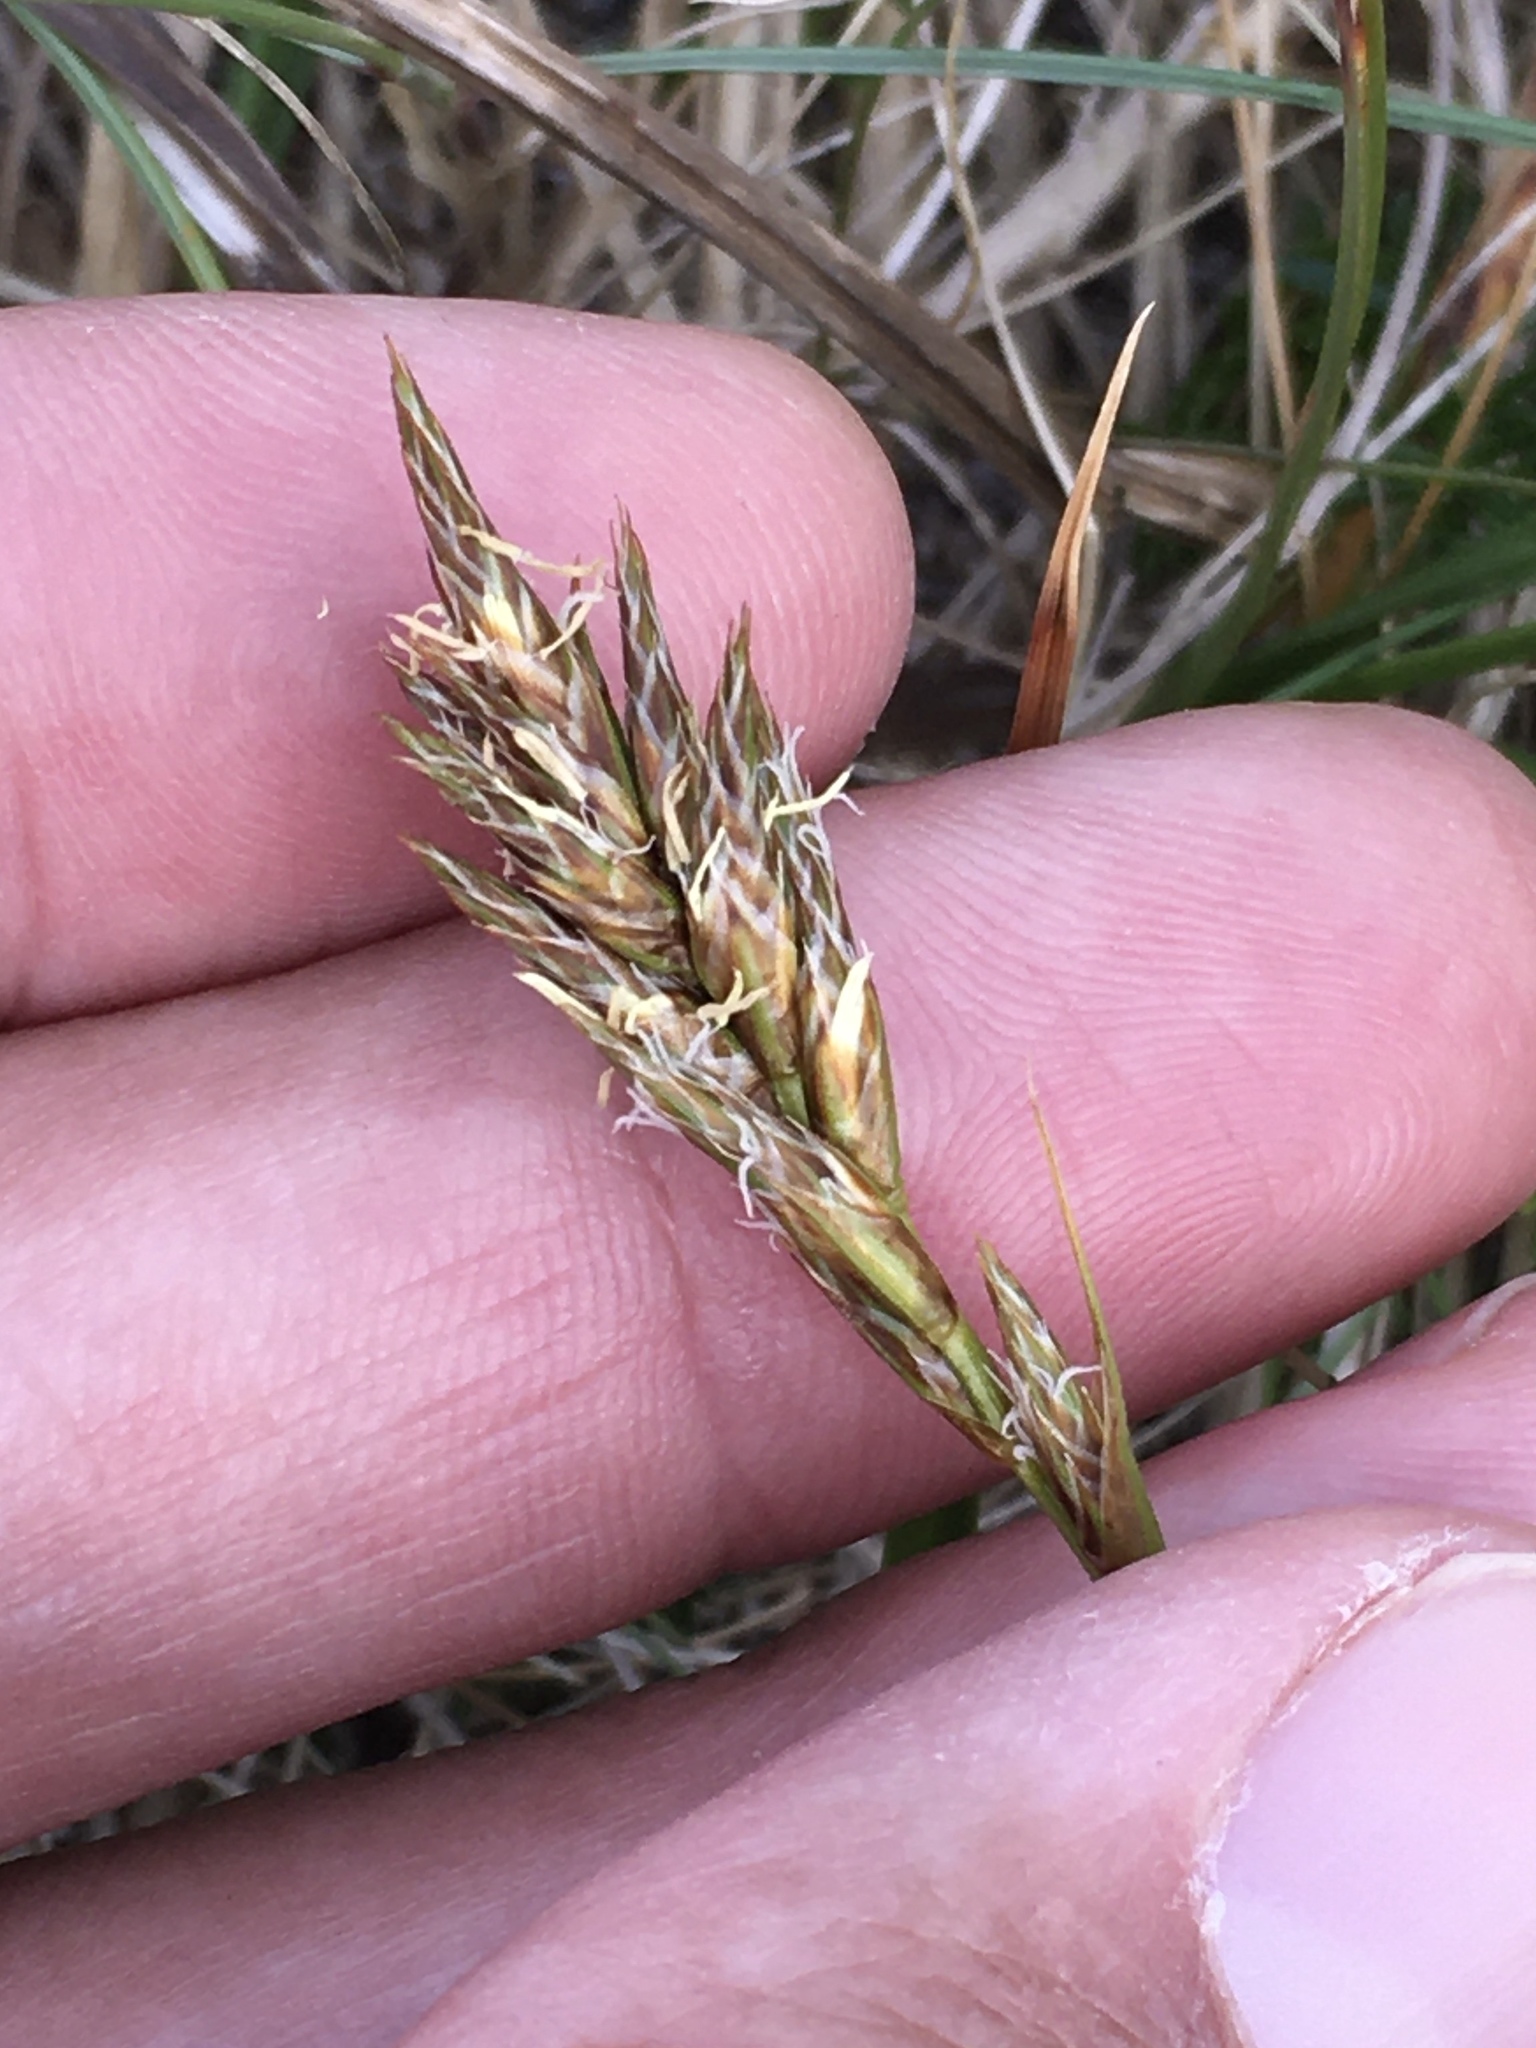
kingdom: Plantae
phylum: Tracheophyta
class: Liliopsida
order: Poales
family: Cyperaceae
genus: Carex
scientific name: Carex arenaria
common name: Sand sedge
